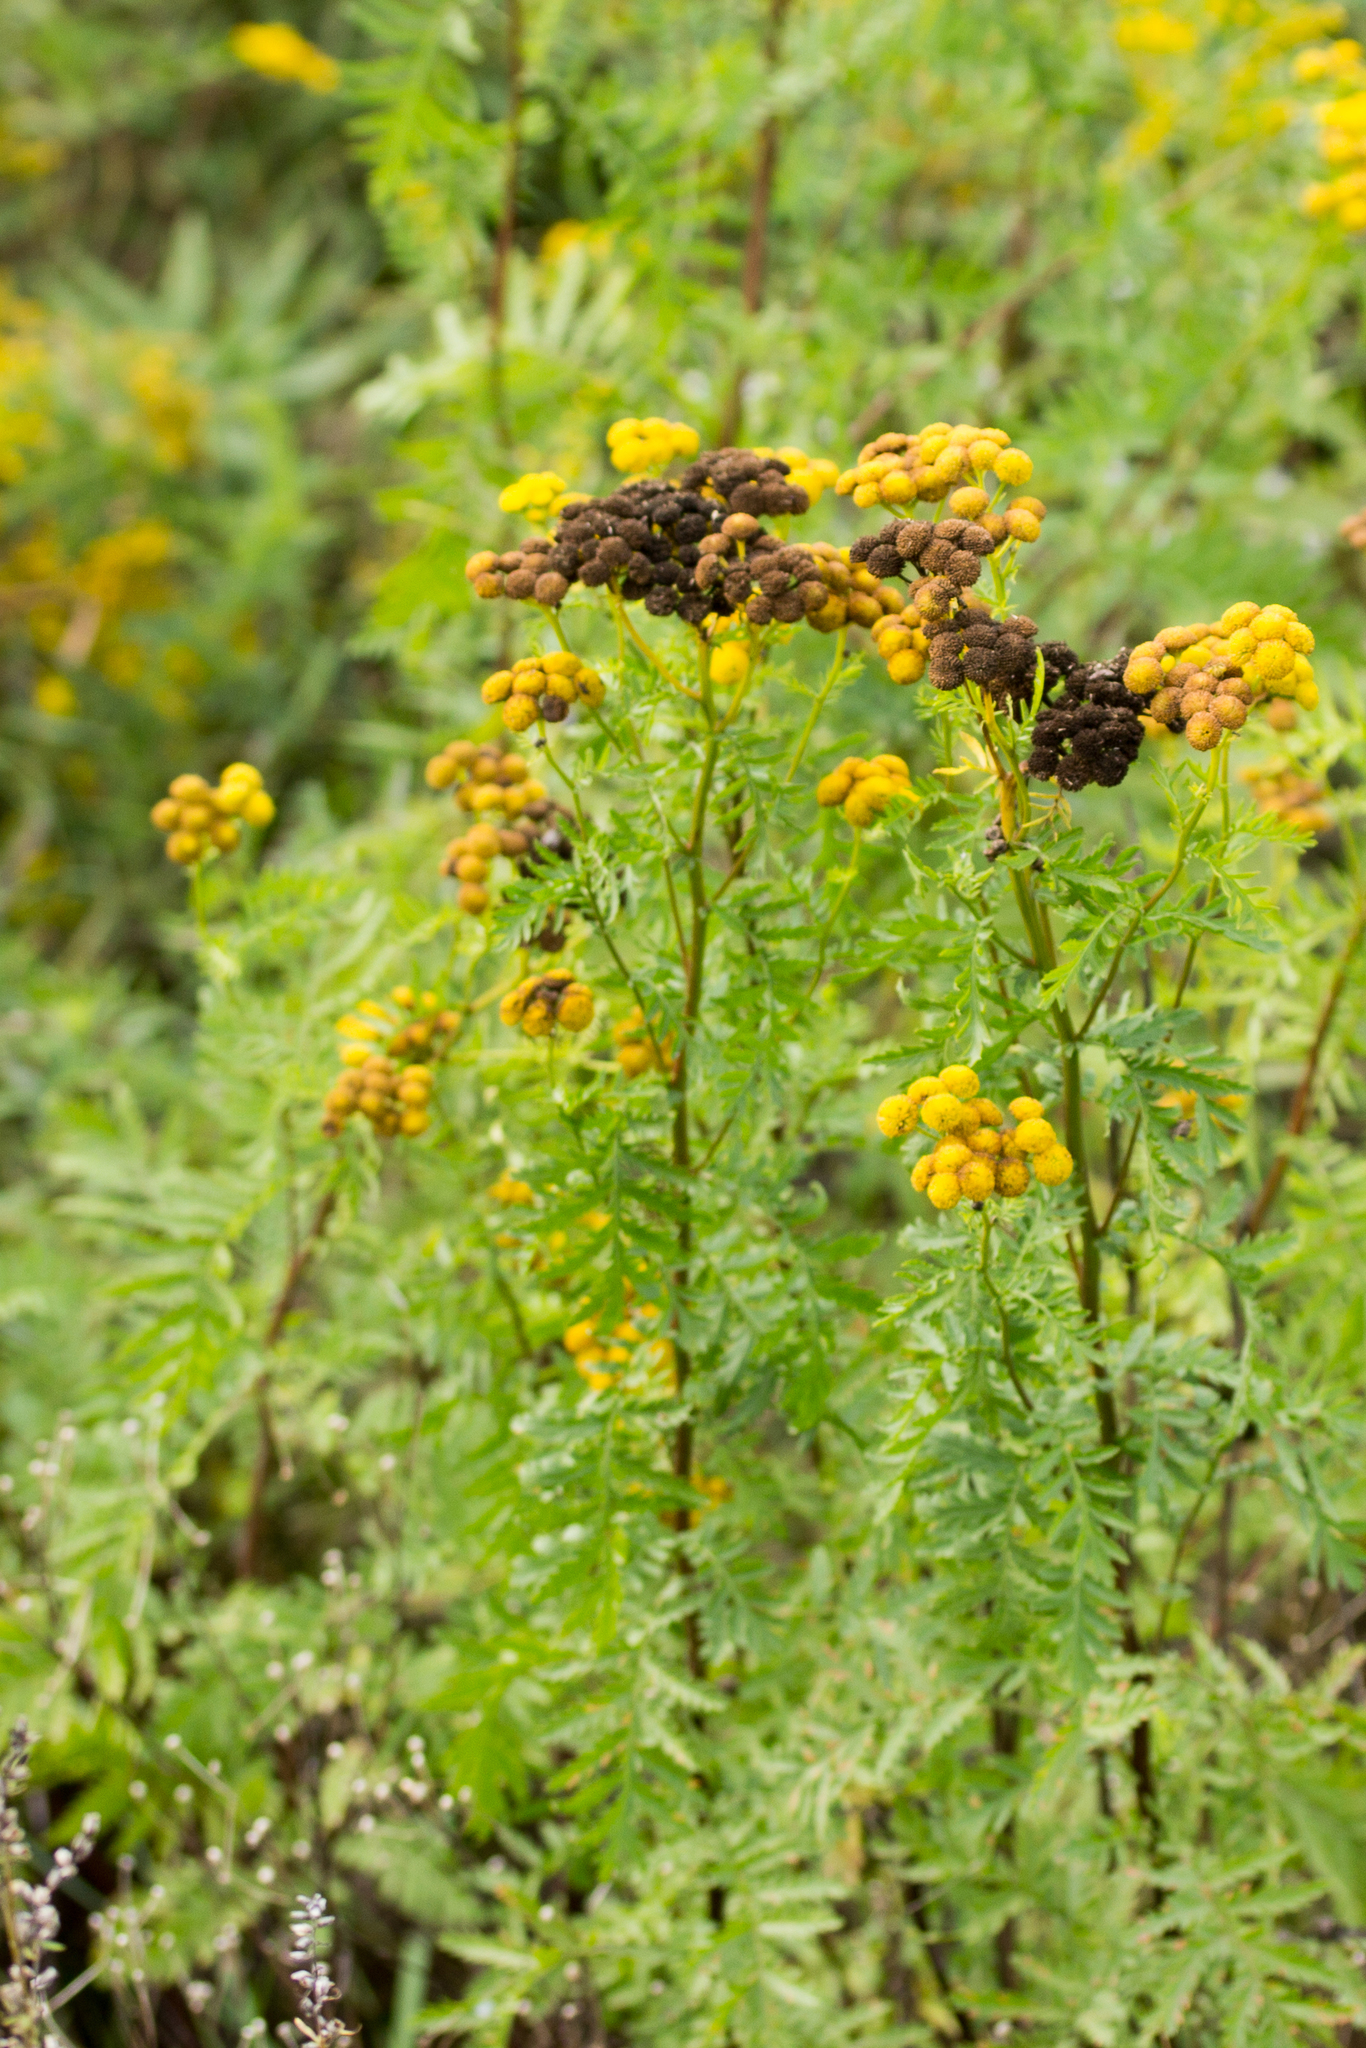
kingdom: Plantae
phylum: Tracheophyta
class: Magnoliopsida
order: Asterales
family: Asteraceae
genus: Tanacetum
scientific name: Tanacetum vulgare
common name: Common tansy
